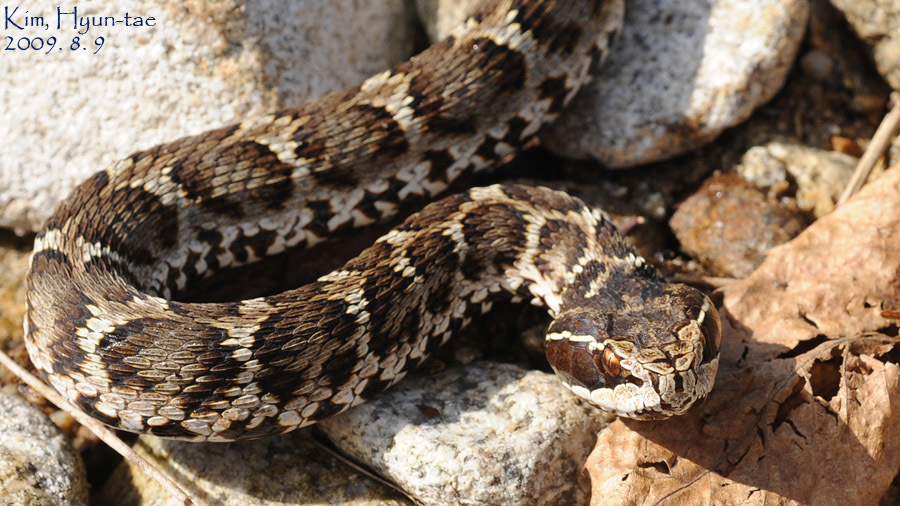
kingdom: Animalia
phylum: Chordata
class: Squamata
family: Viperidae
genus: Gloydius
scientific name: Gloydius brevicauda
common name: Short-tailed mamushi
